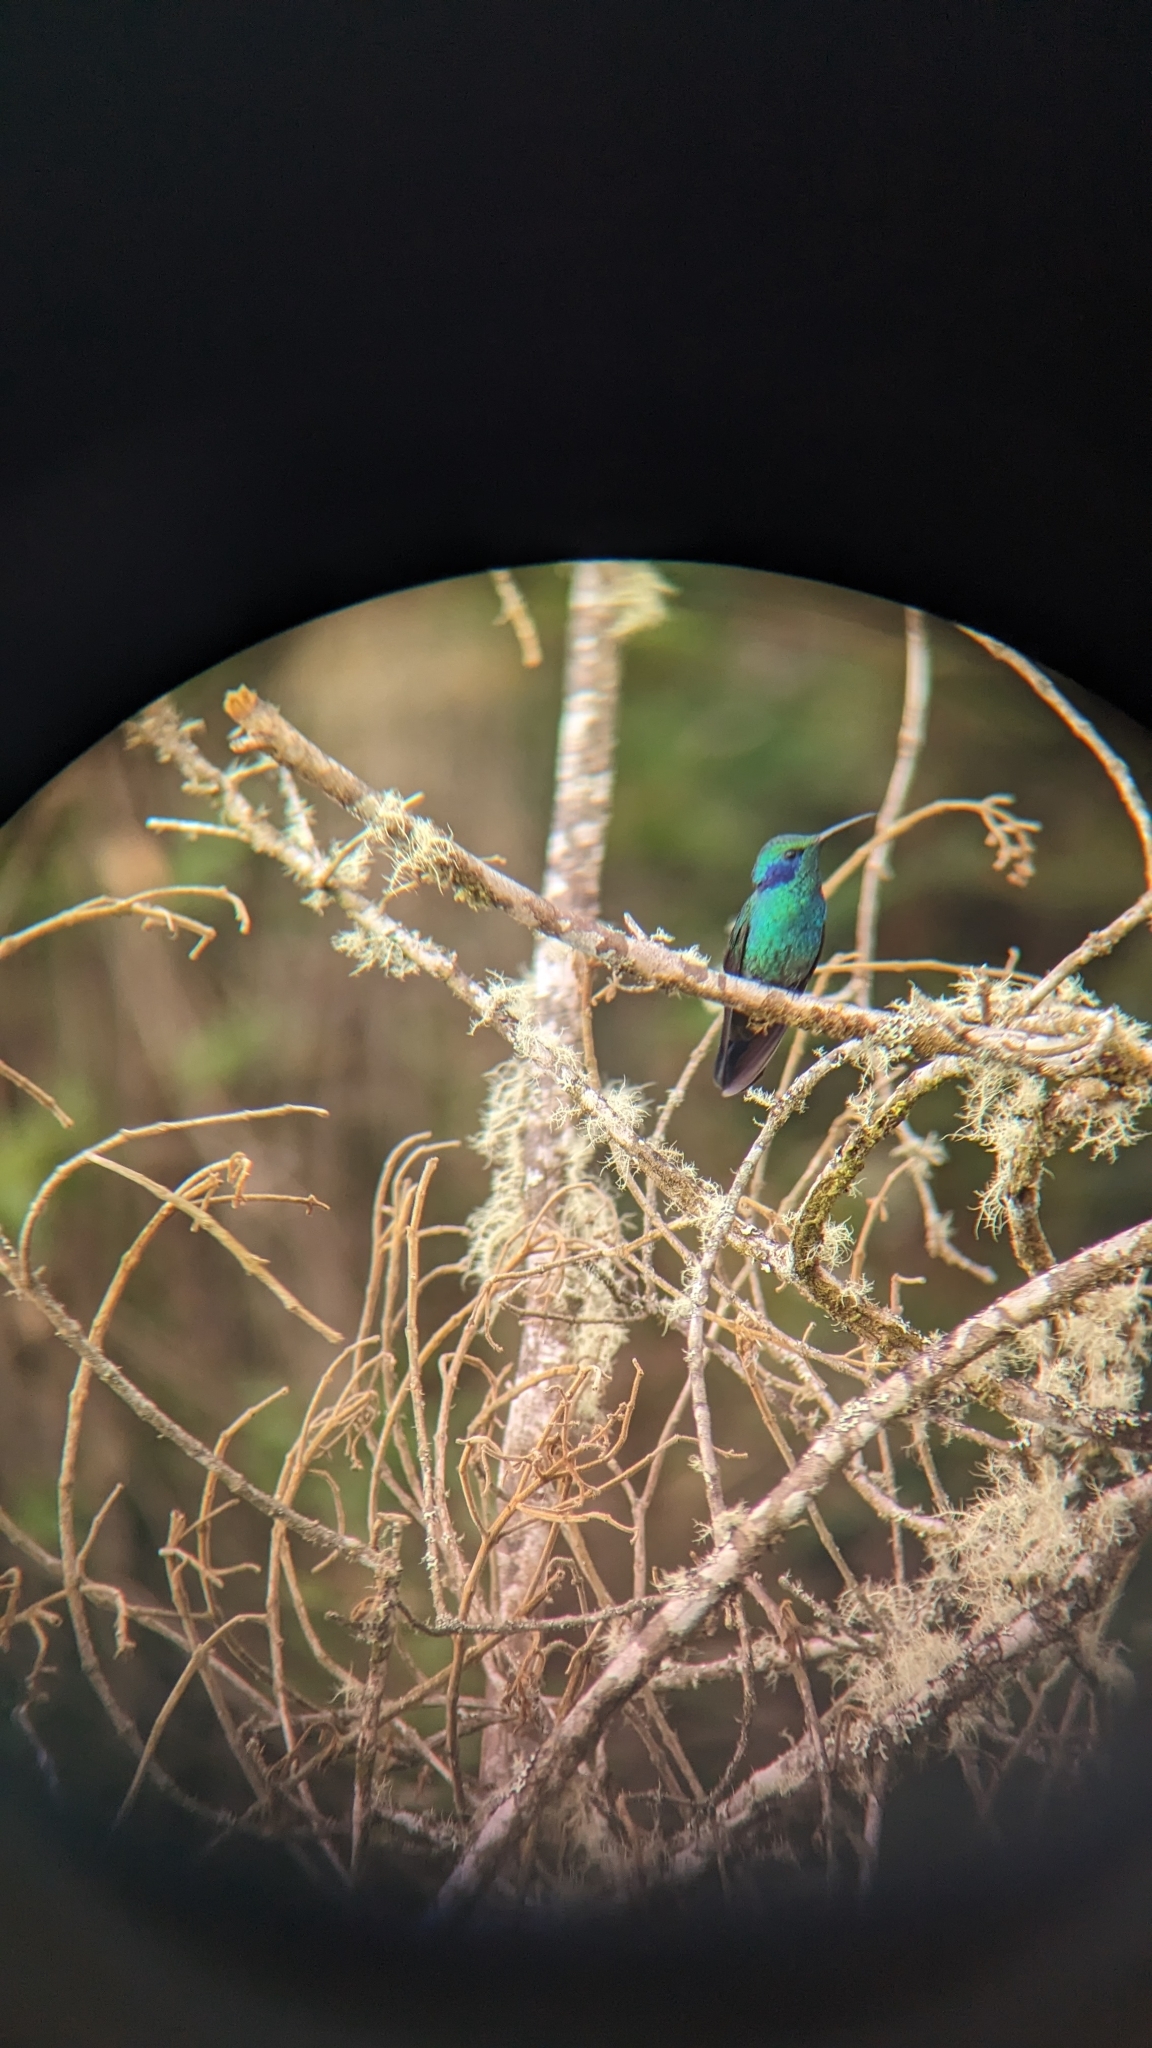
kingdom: Animalia
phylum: Chordata
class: Aves
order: Apodiformes
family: Trochilidae
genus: Colibri
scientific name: Colibri cyanotus
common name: Lesser violetear
